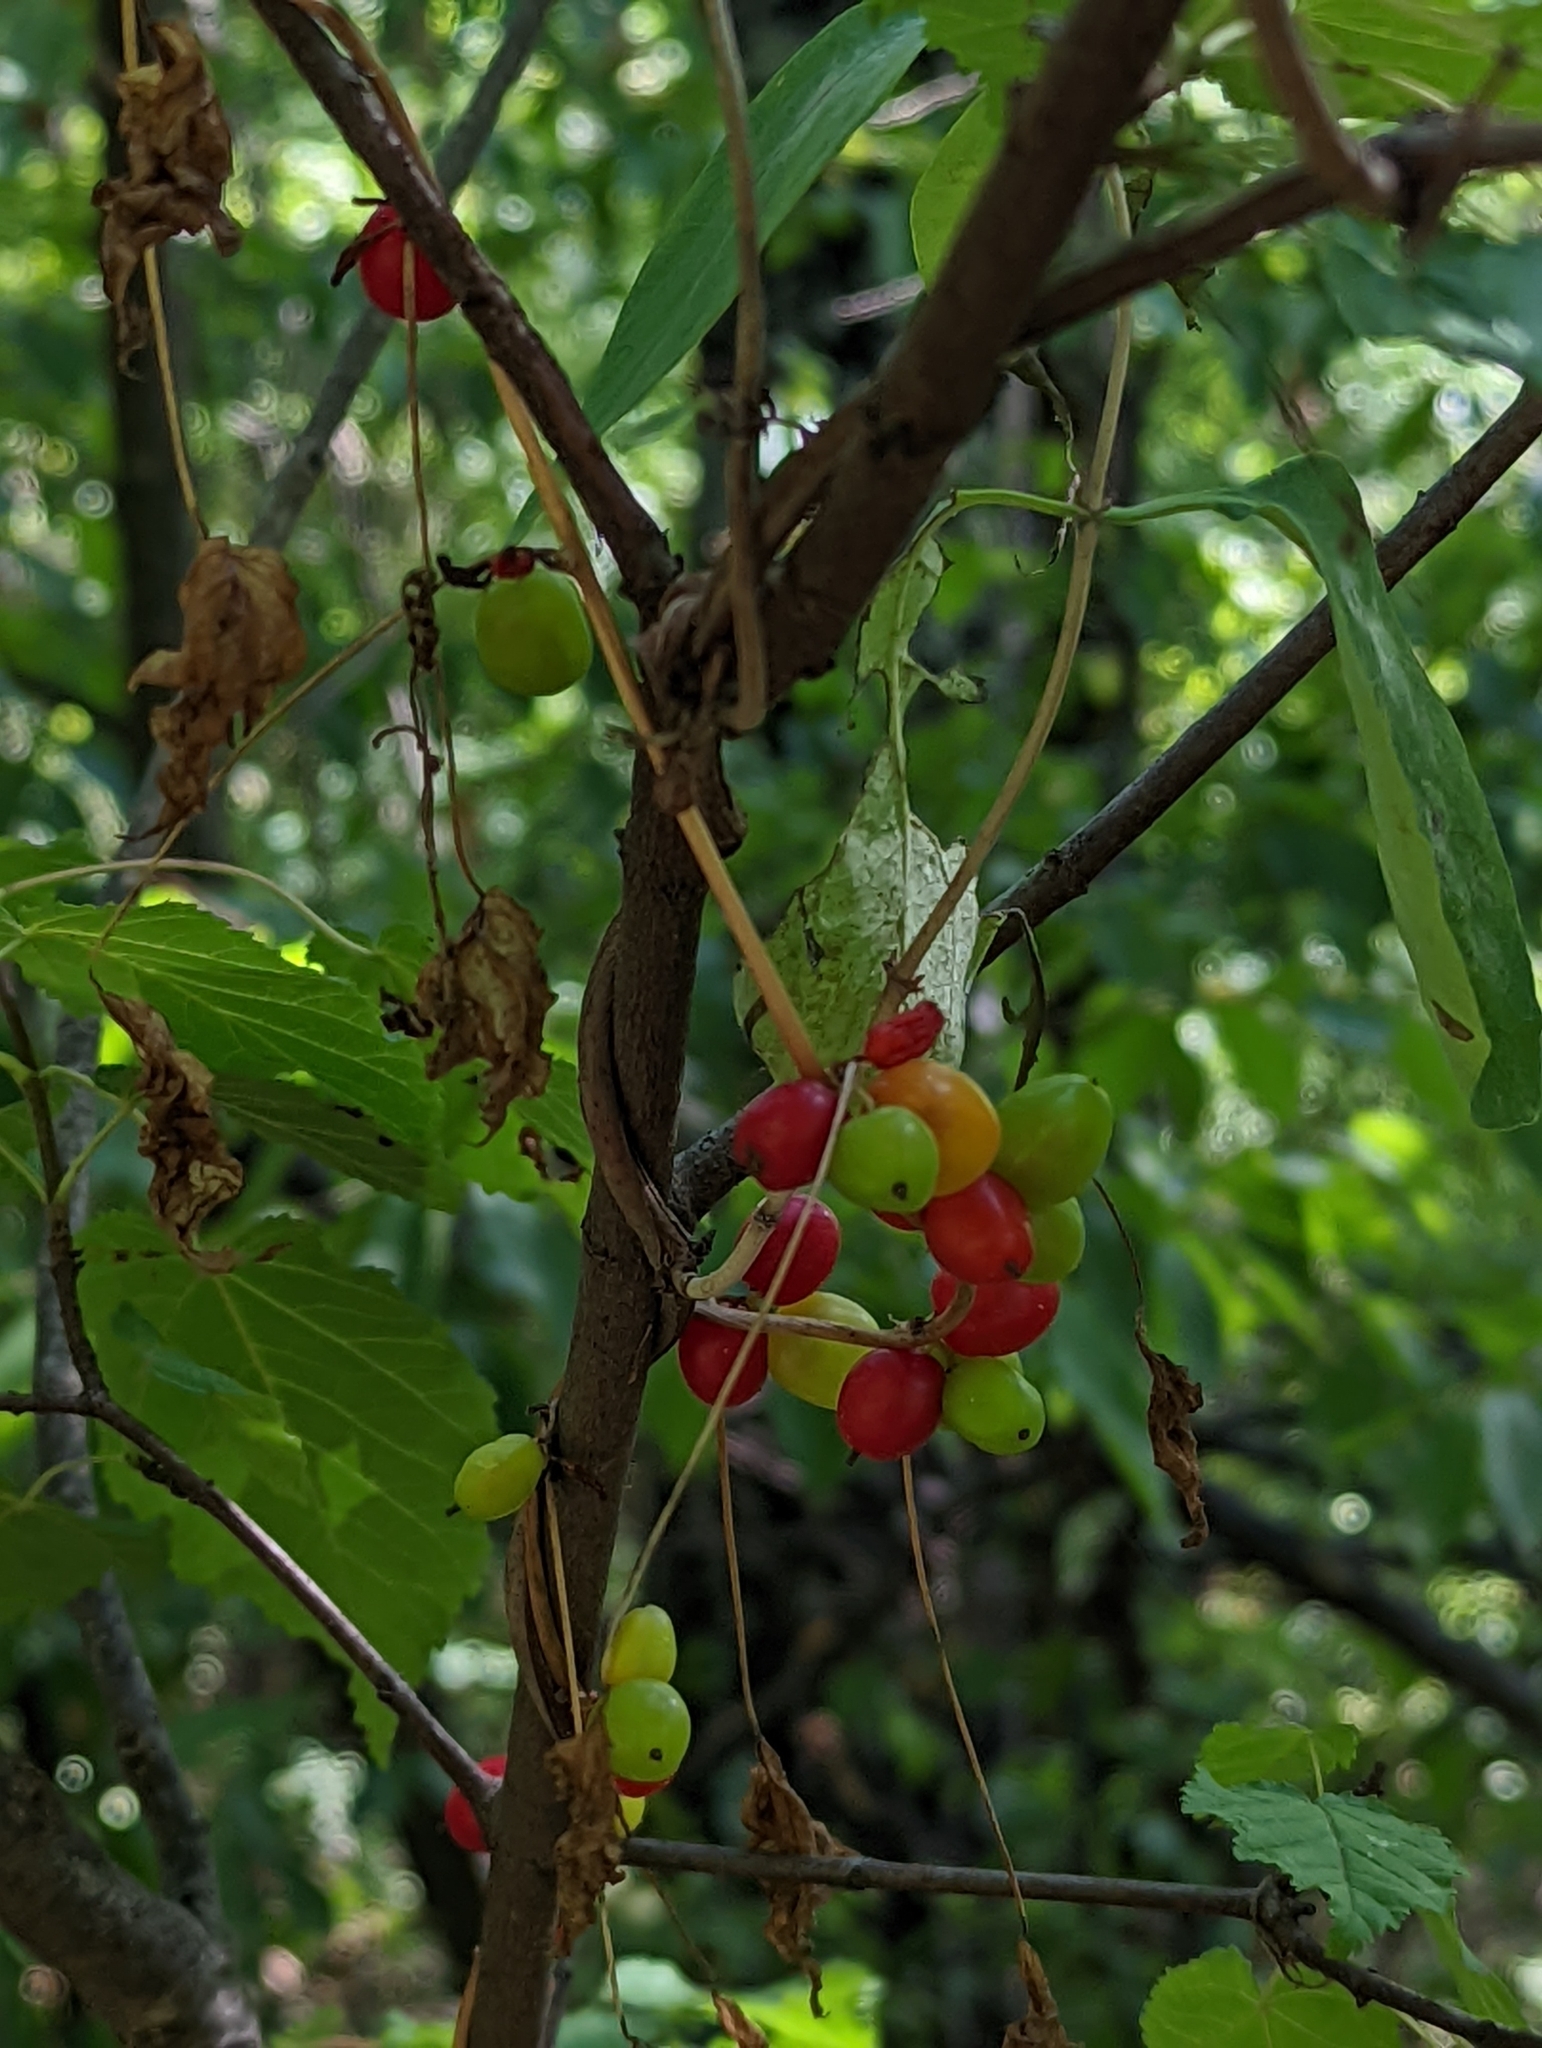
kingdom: Plantae
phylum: Tracheophyta
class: Liliopsida
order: Dioscoreales
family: Dioscoreaceae
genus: Dioscorea
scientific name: Dioscorea communis
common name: Black-bindweed
